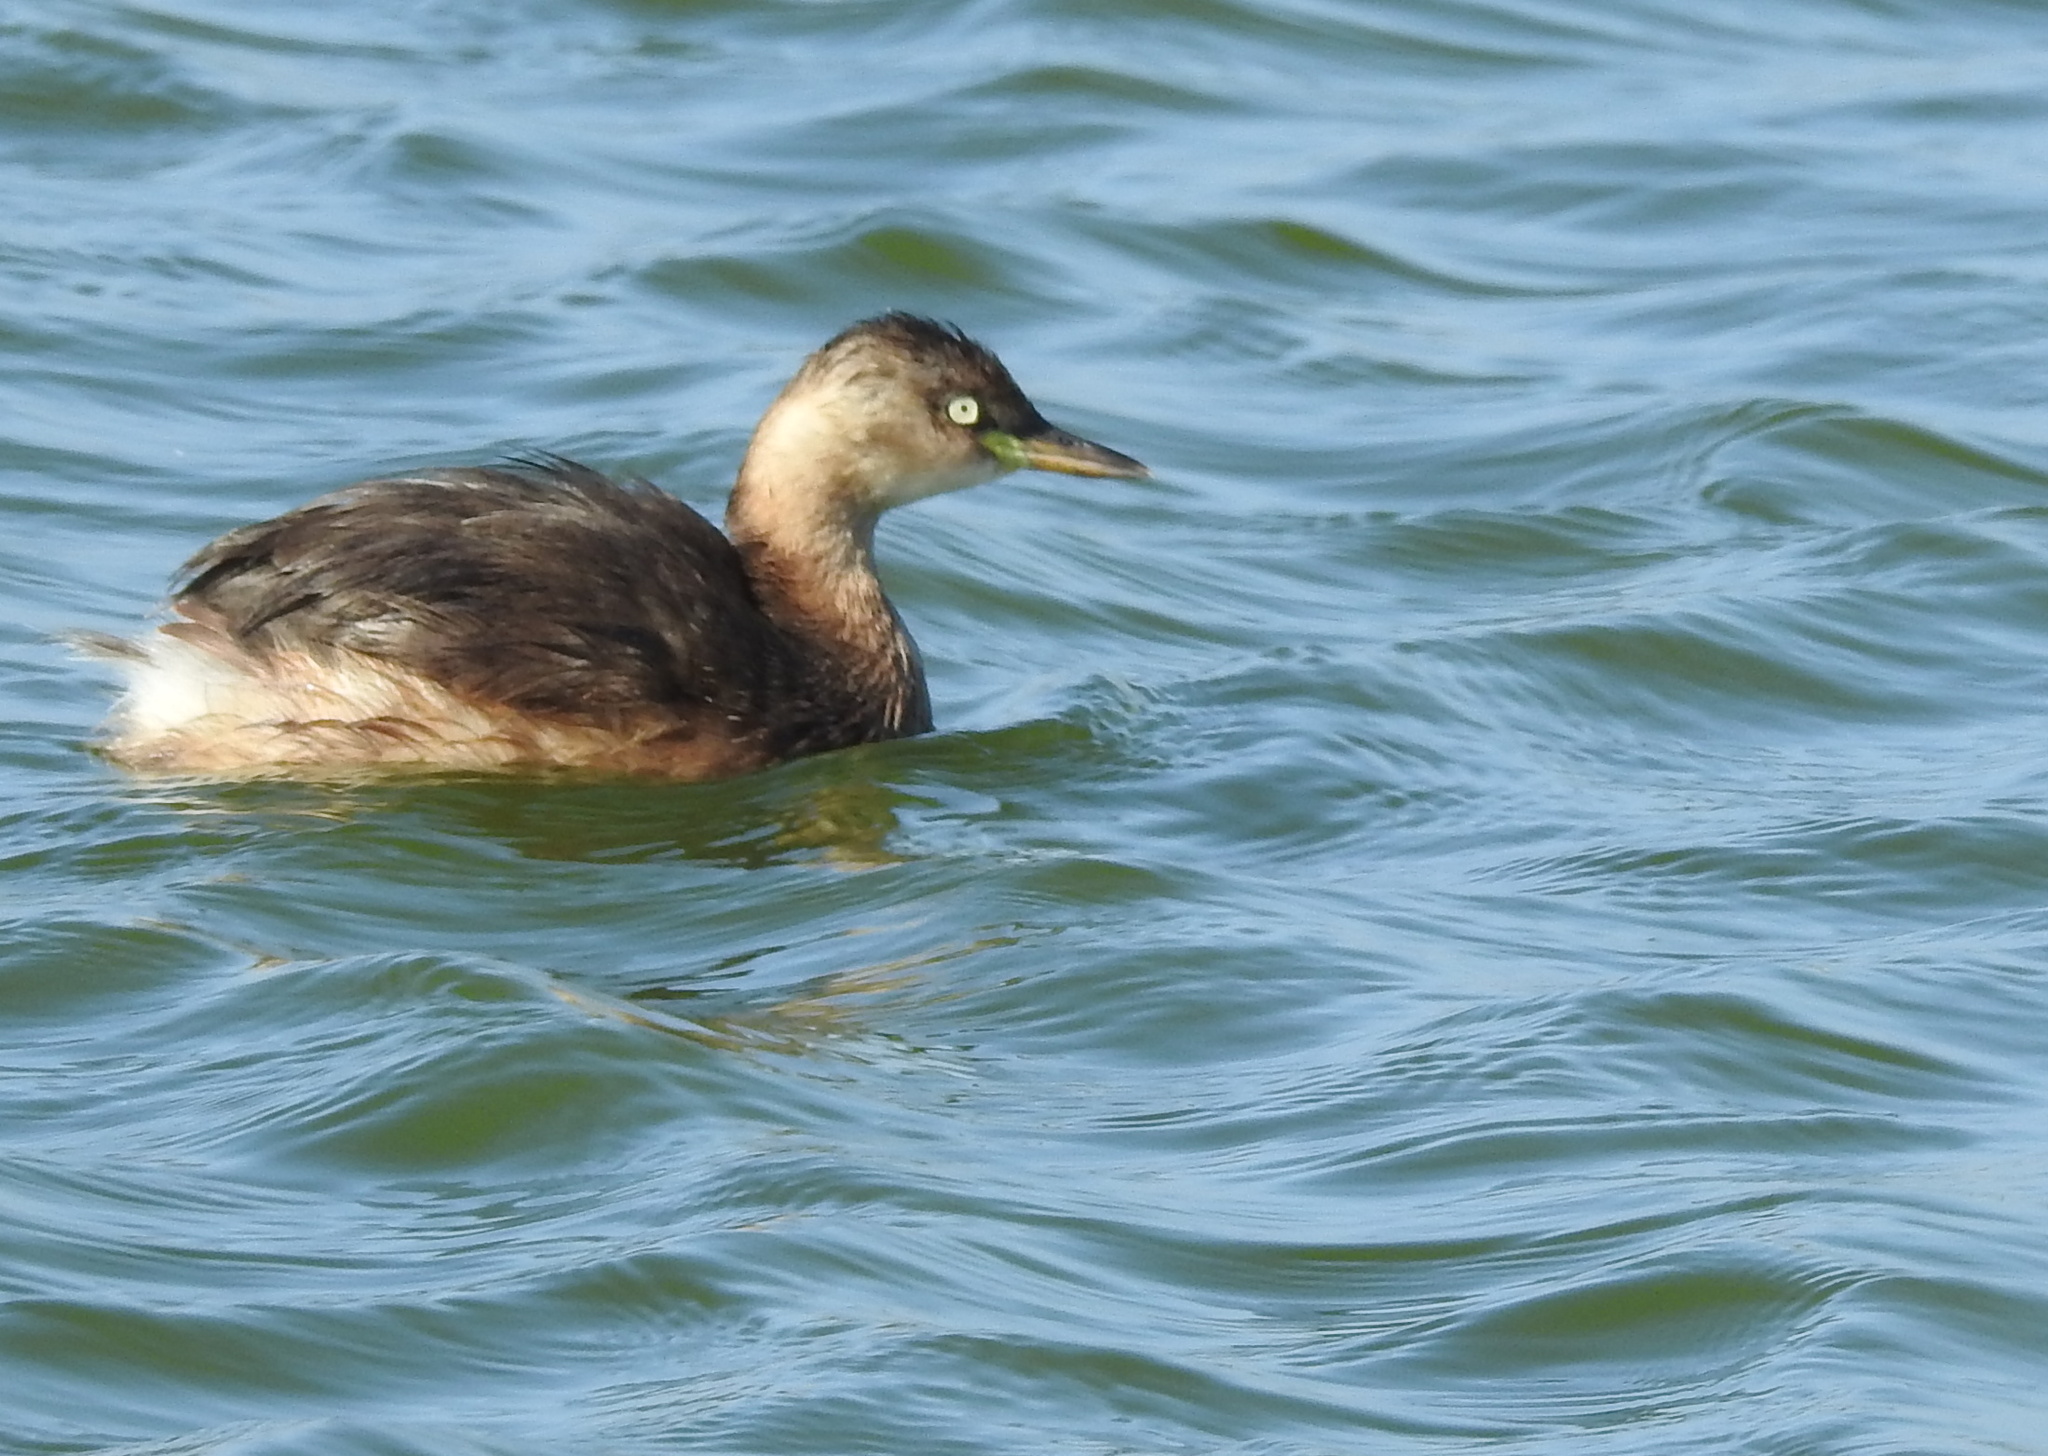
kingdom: Animalia
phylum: Chordata
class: Aves
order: Podicipediformes
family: Podicipedidae
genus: Tachybaptus
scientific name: Tachybaptus ruficollis
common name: Little grebe
